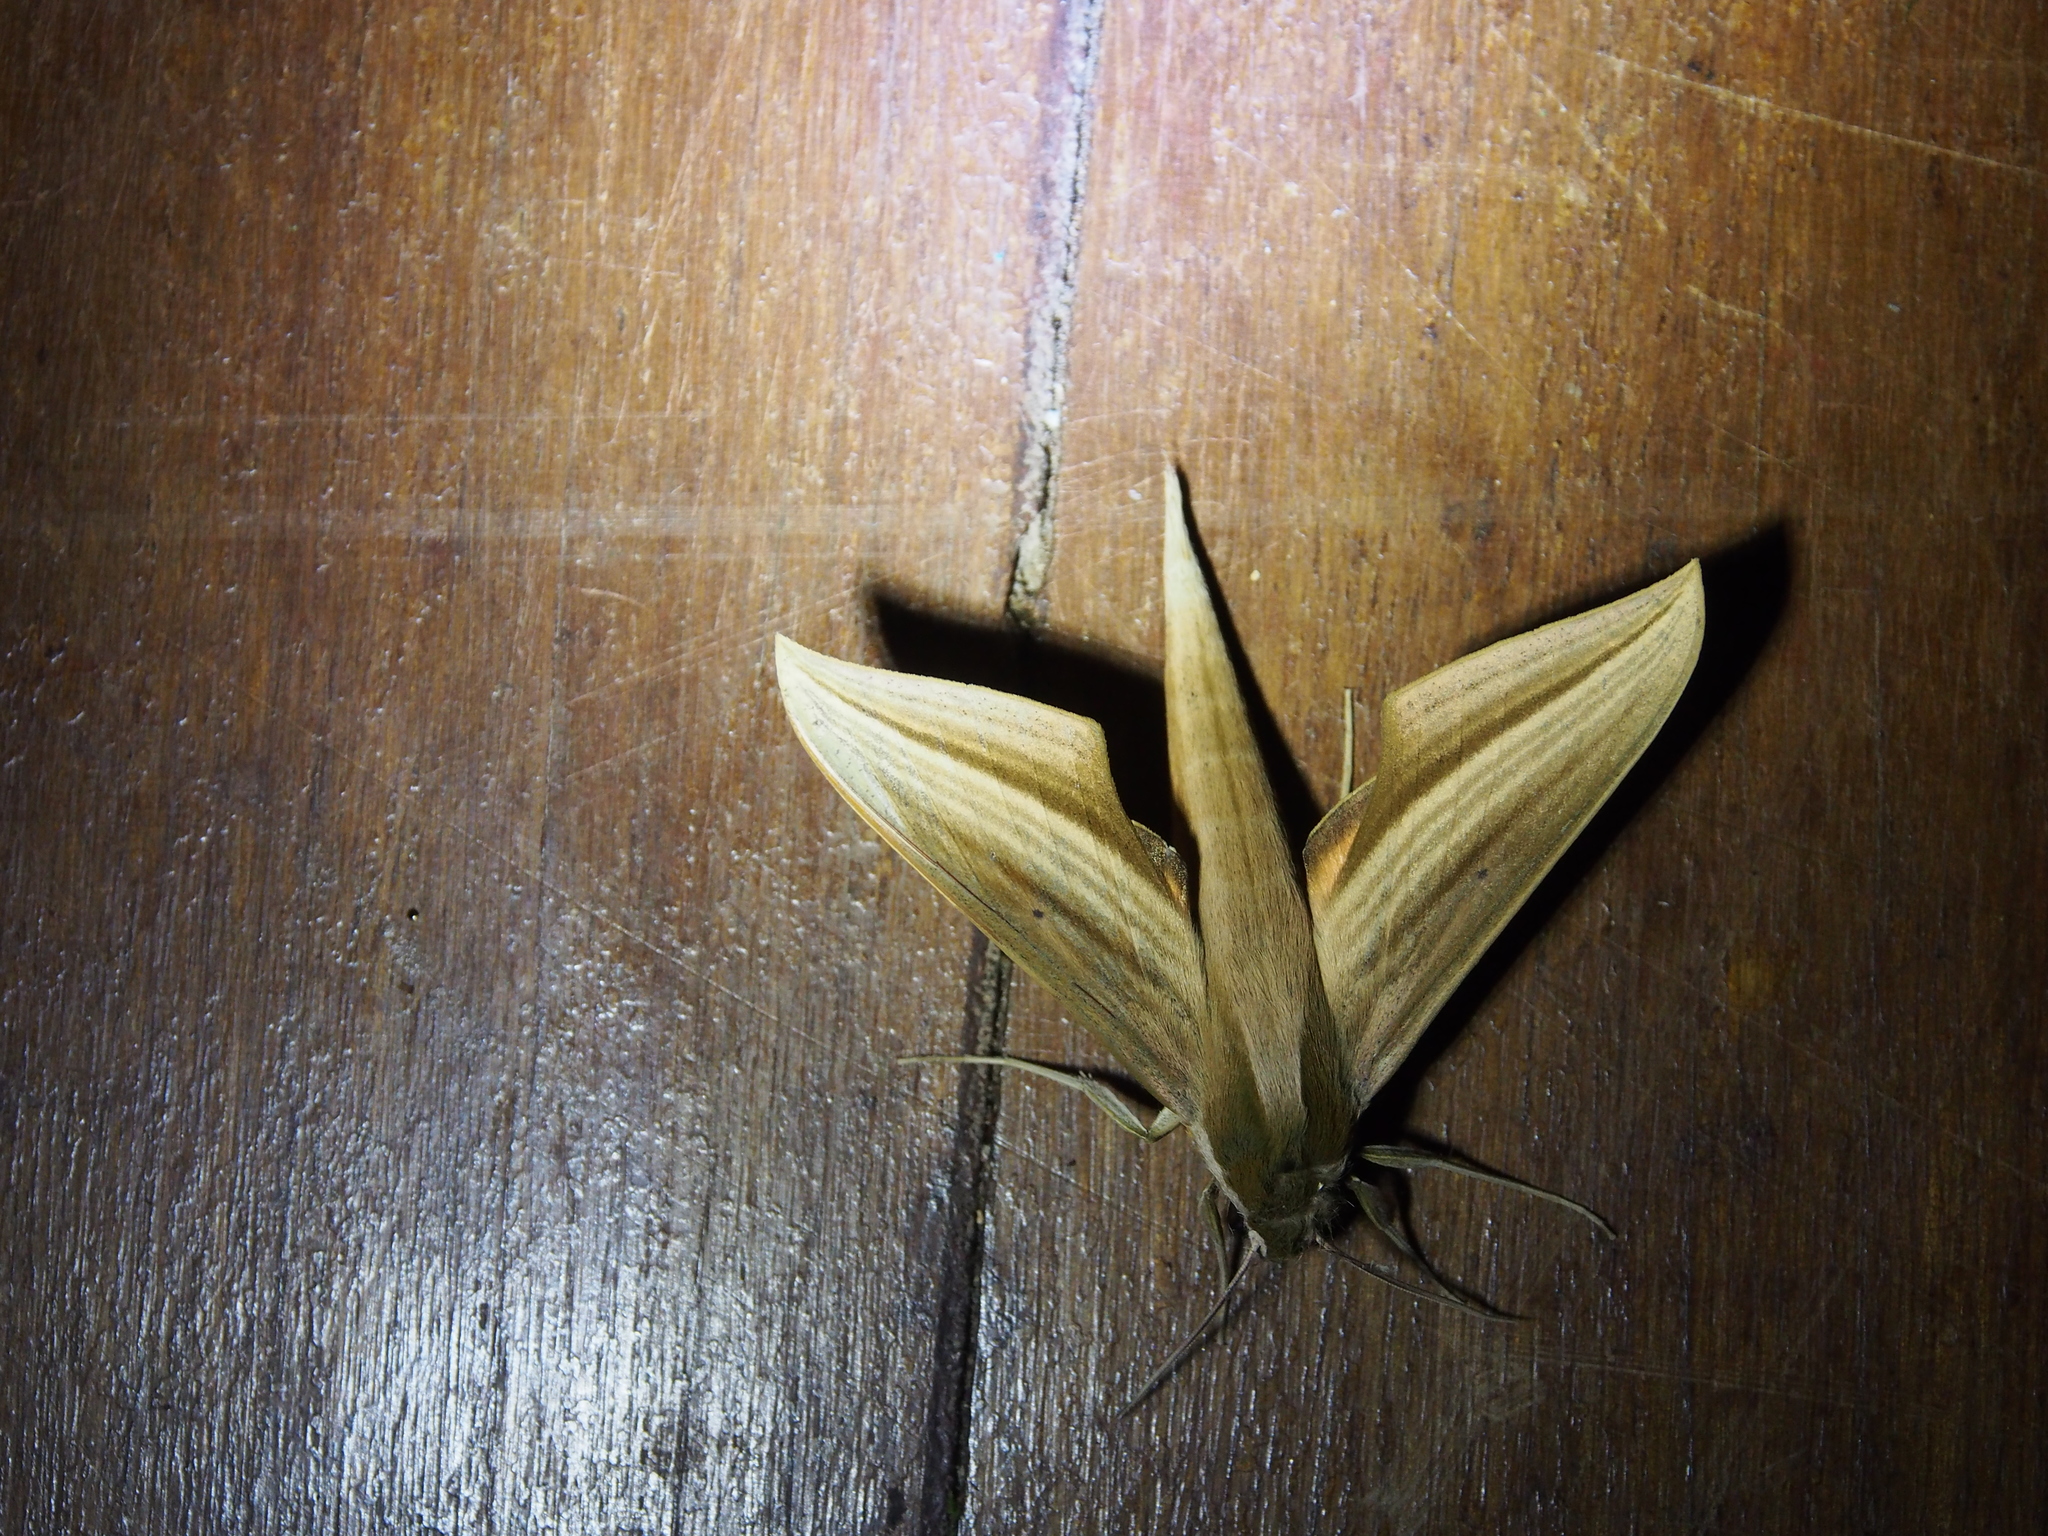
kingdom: Animalia
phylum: Arthropoda
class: Insecta
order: Lepidoptera
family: Sphingidae
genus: Xylophanes
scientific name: Xylophanes loelia
